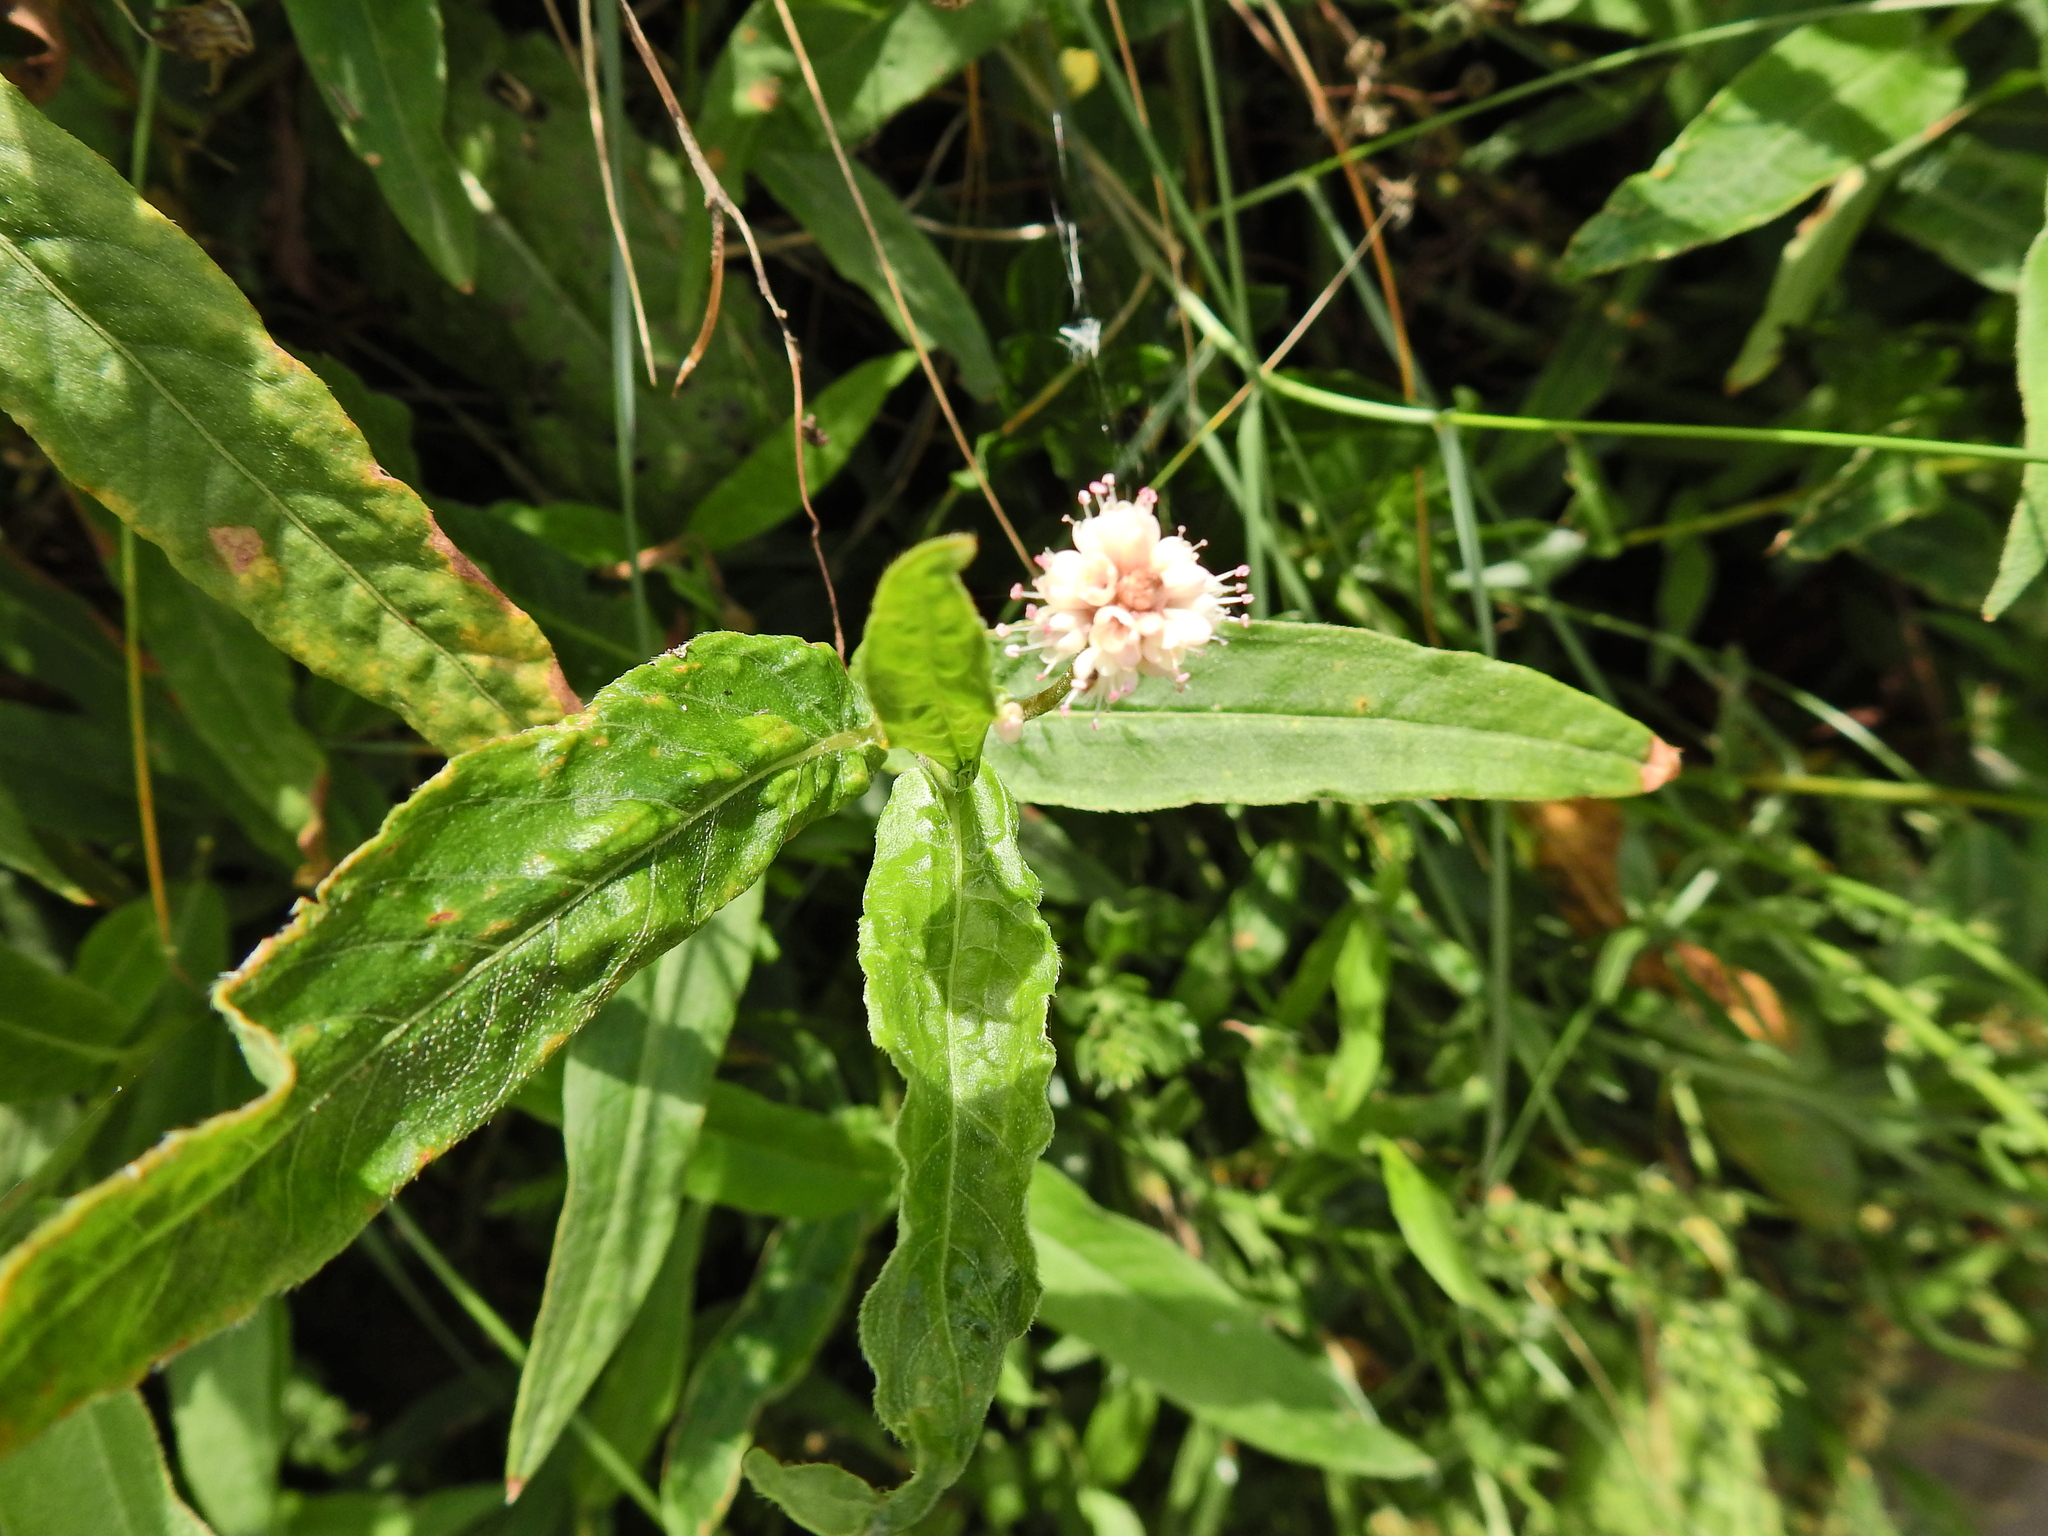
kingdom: Plantae
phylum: Tracheophyta
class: Magnoliopsida
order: Caryophyllales
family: Polygonaceae
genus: Persicaria
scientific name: Persicaria amphibia
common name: Amphibious bistort
